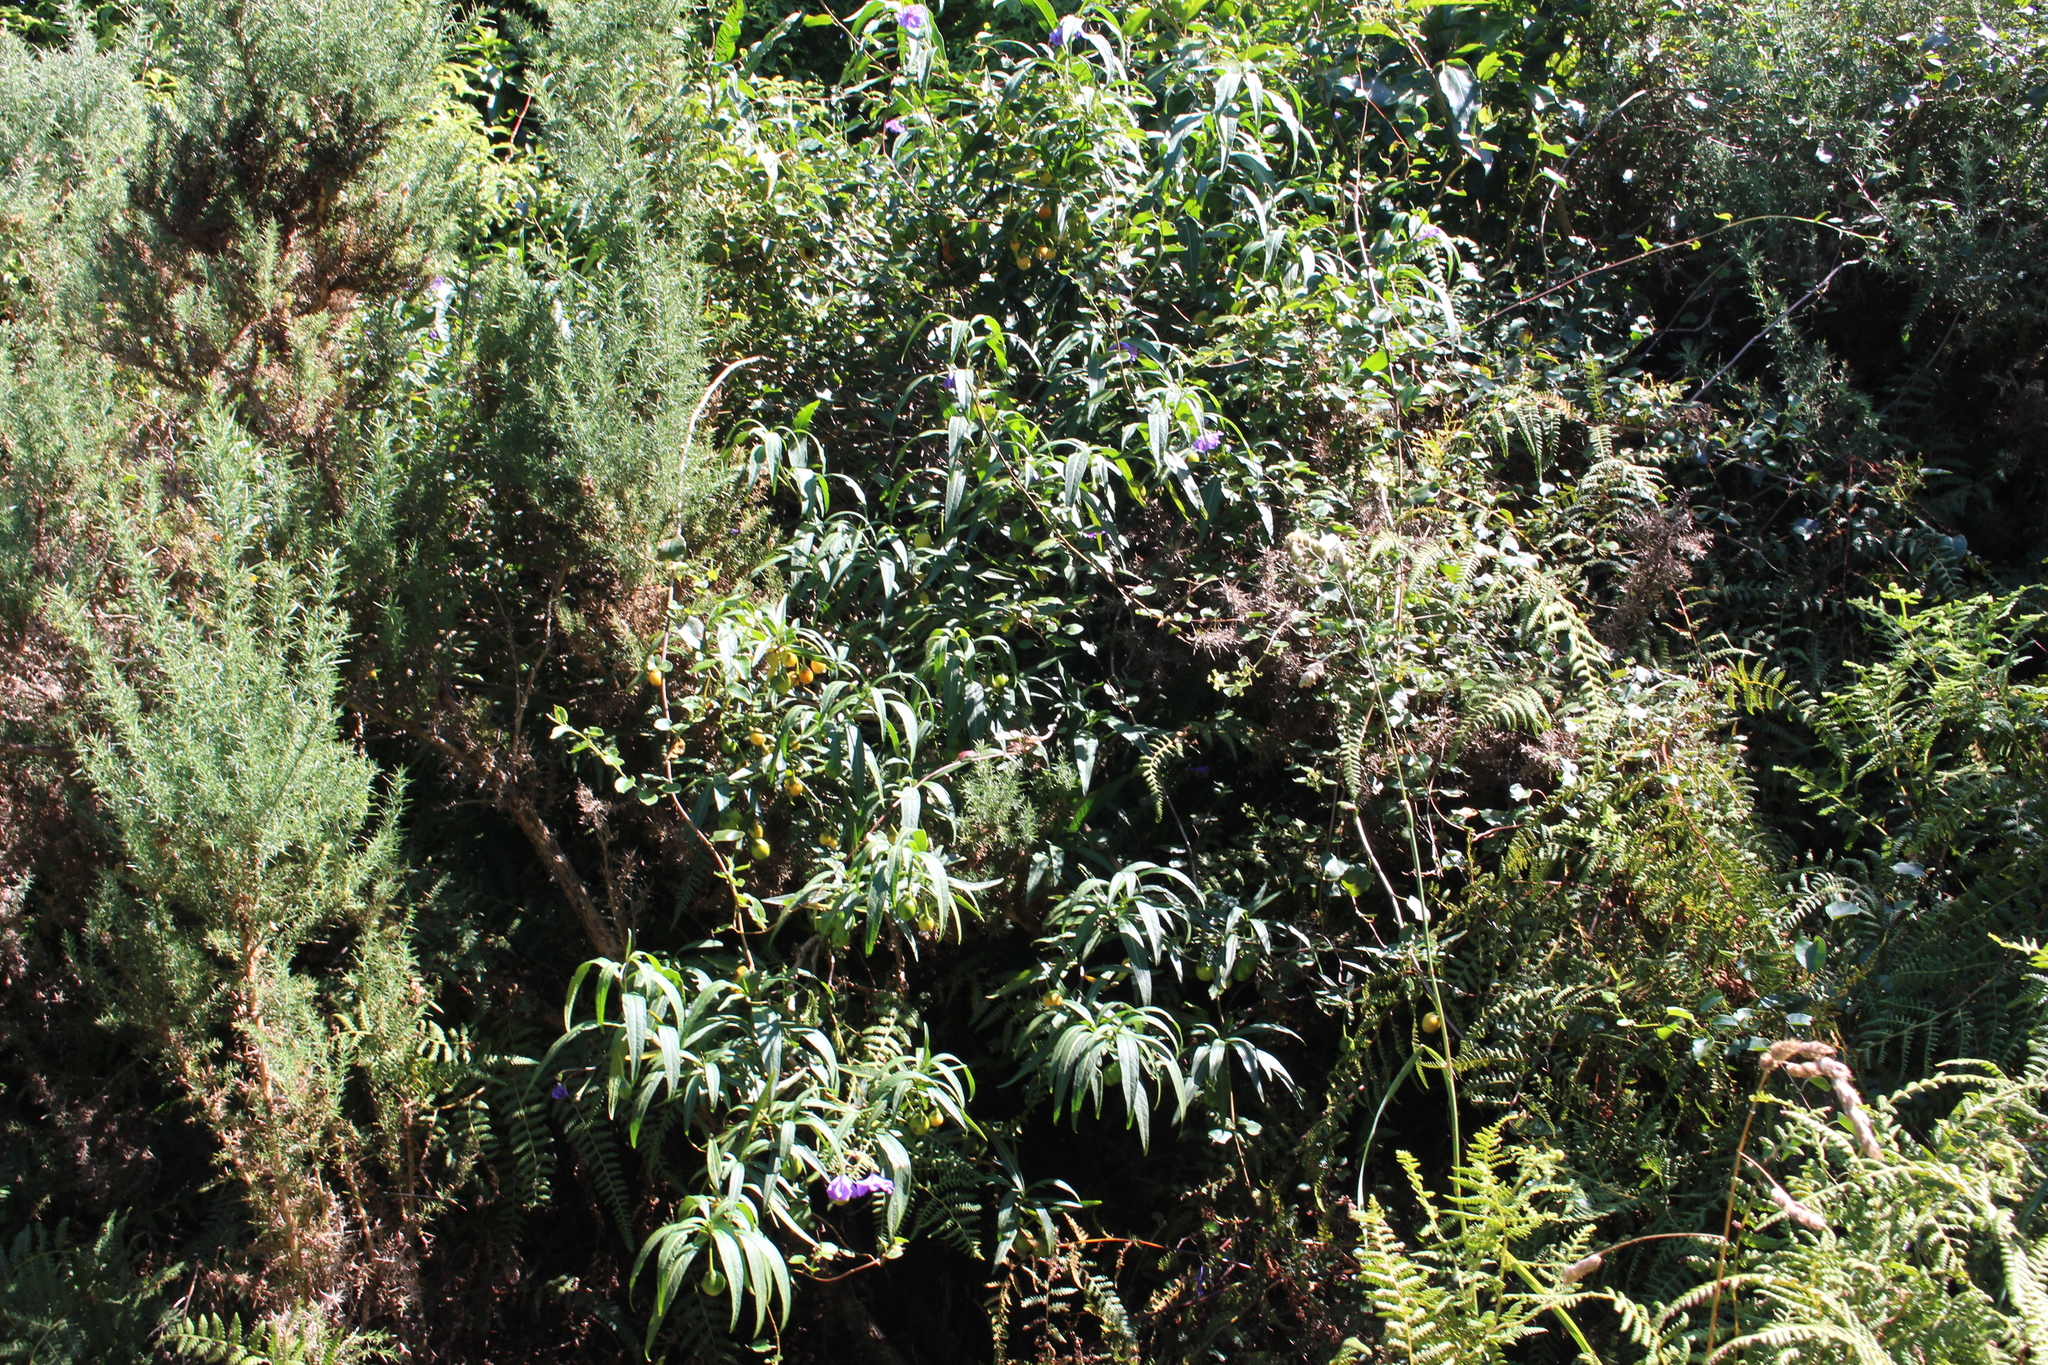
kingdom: Plantae
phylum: Tracheophyta
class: Magnoliopsida
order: Solanales
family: Solanaceae
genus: Solanum
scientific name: Solanum laciniatum
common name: Kangaroo-apple
